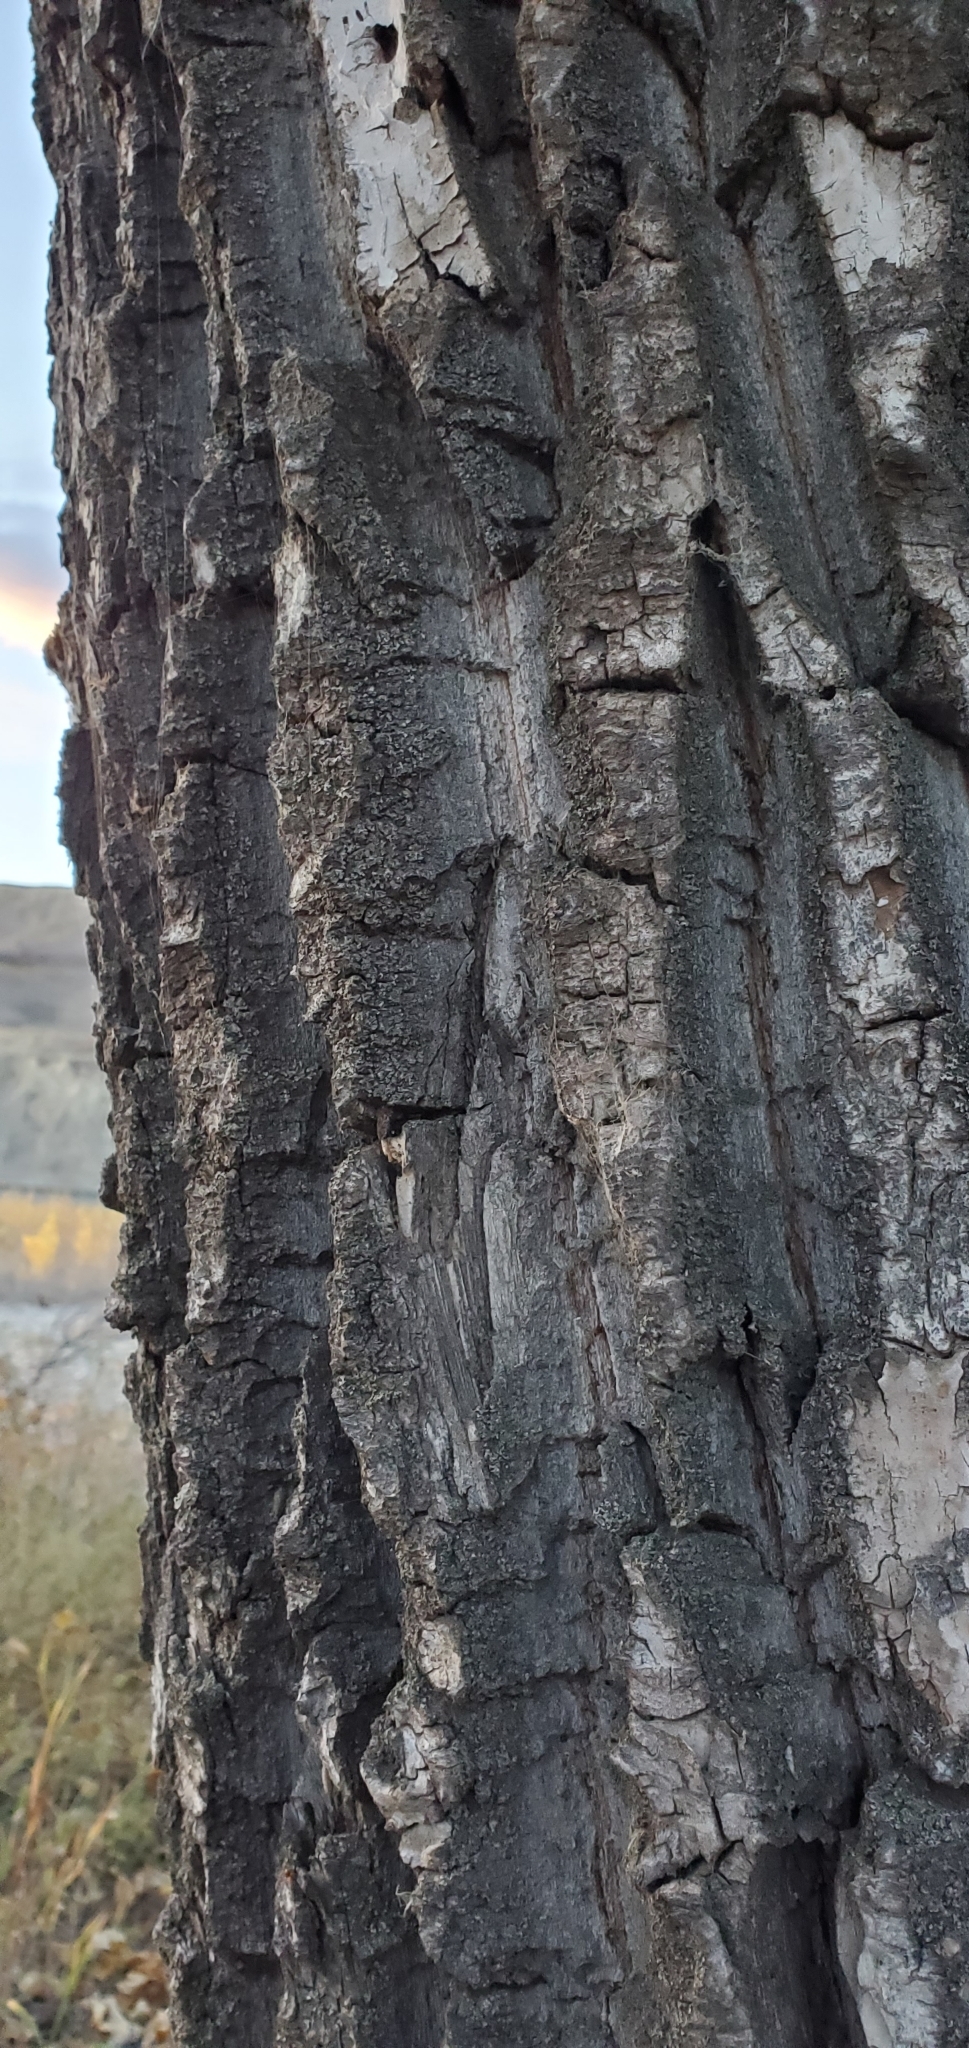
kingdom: Plantae
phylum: Tracheophyta
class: Magnoliopsida
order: Malpighiales
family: Salicaceae
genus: Populus
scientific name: Populus balsamifera
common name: Balsam poplar
